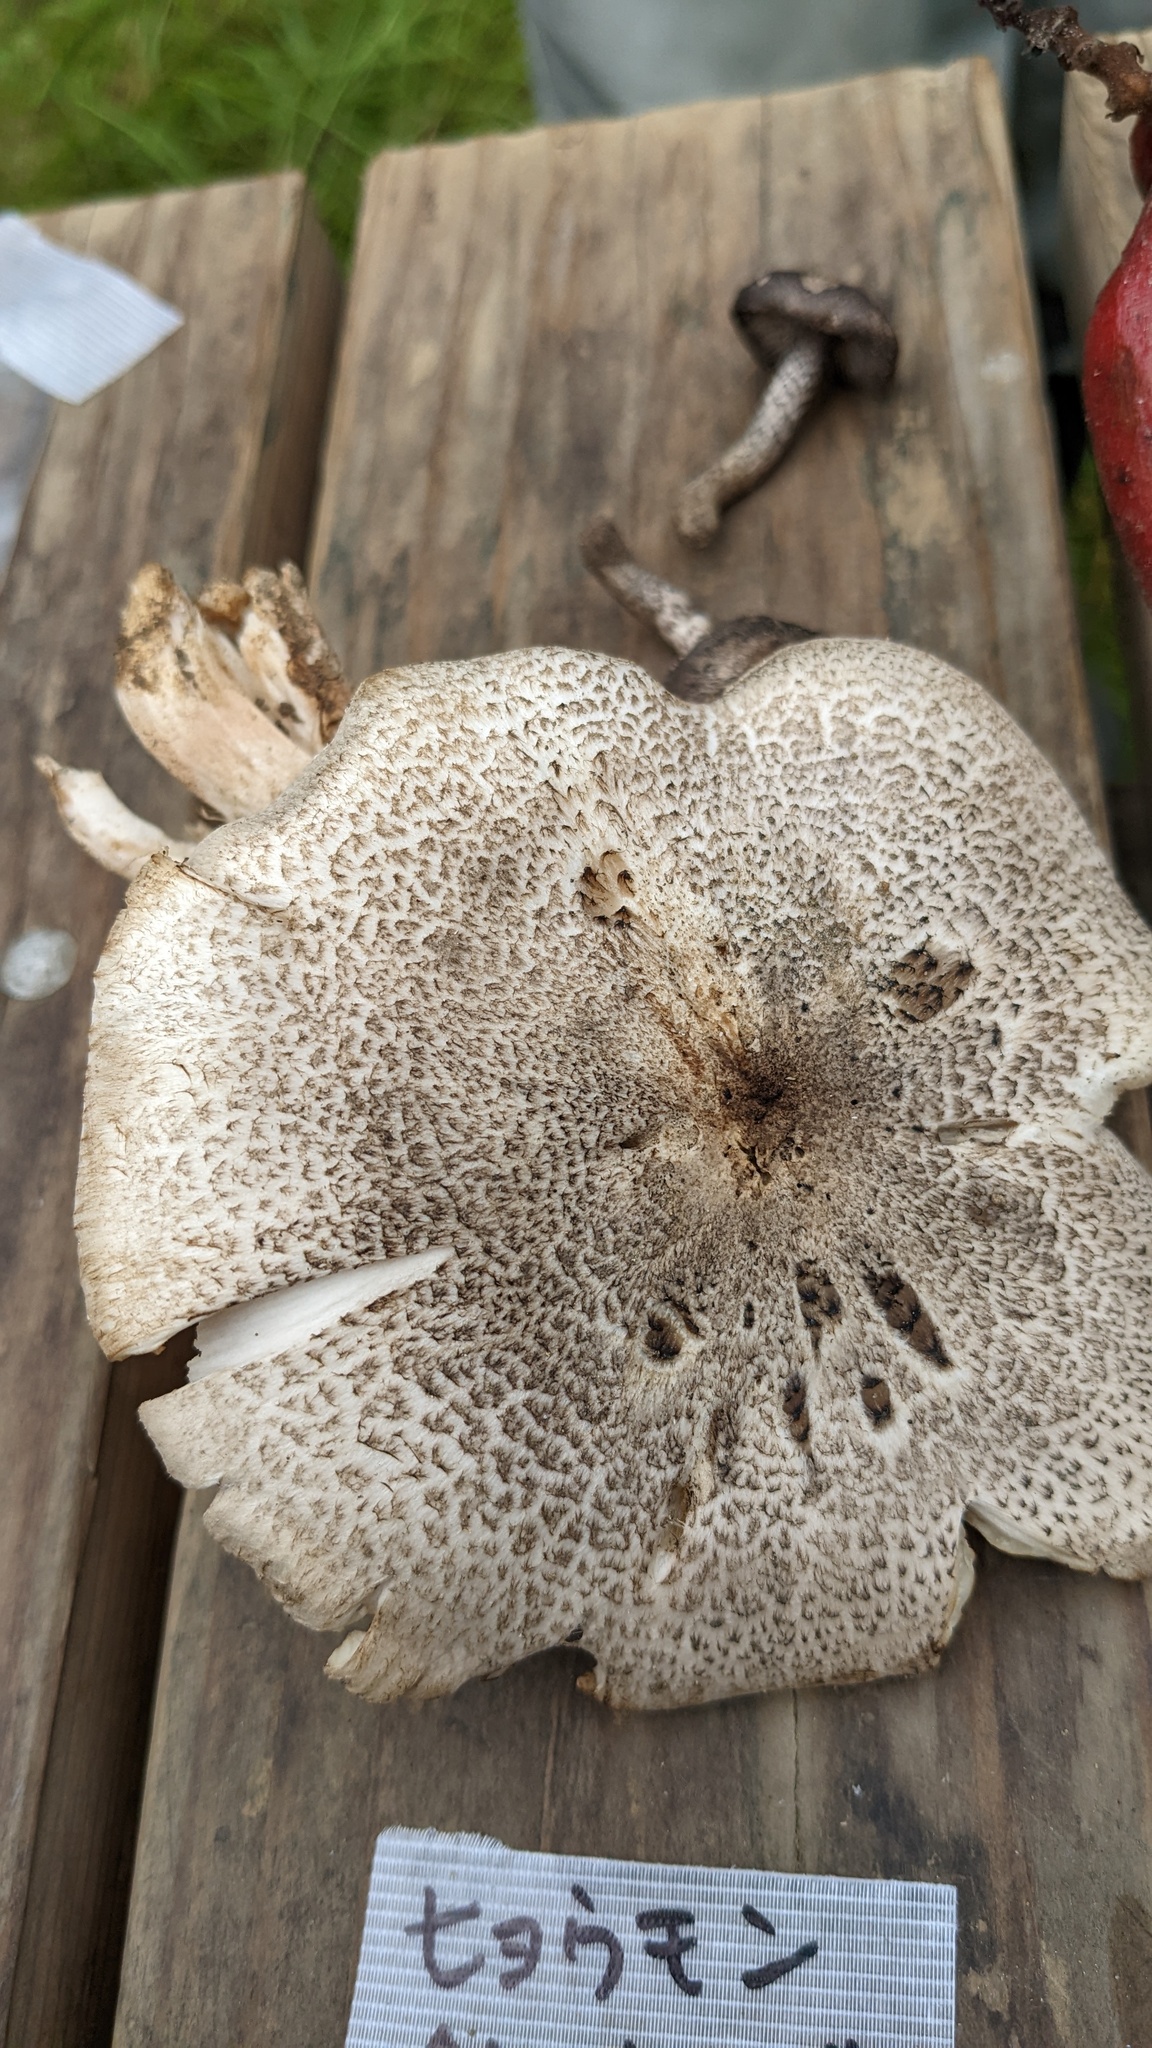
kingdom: Fungi
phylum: Basidiomycota
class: Agaricomycetes
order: Agaricales
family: Tricholomataceae
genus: Tricholoma
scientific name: Tricholoma pardinum
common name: Leopard knight
